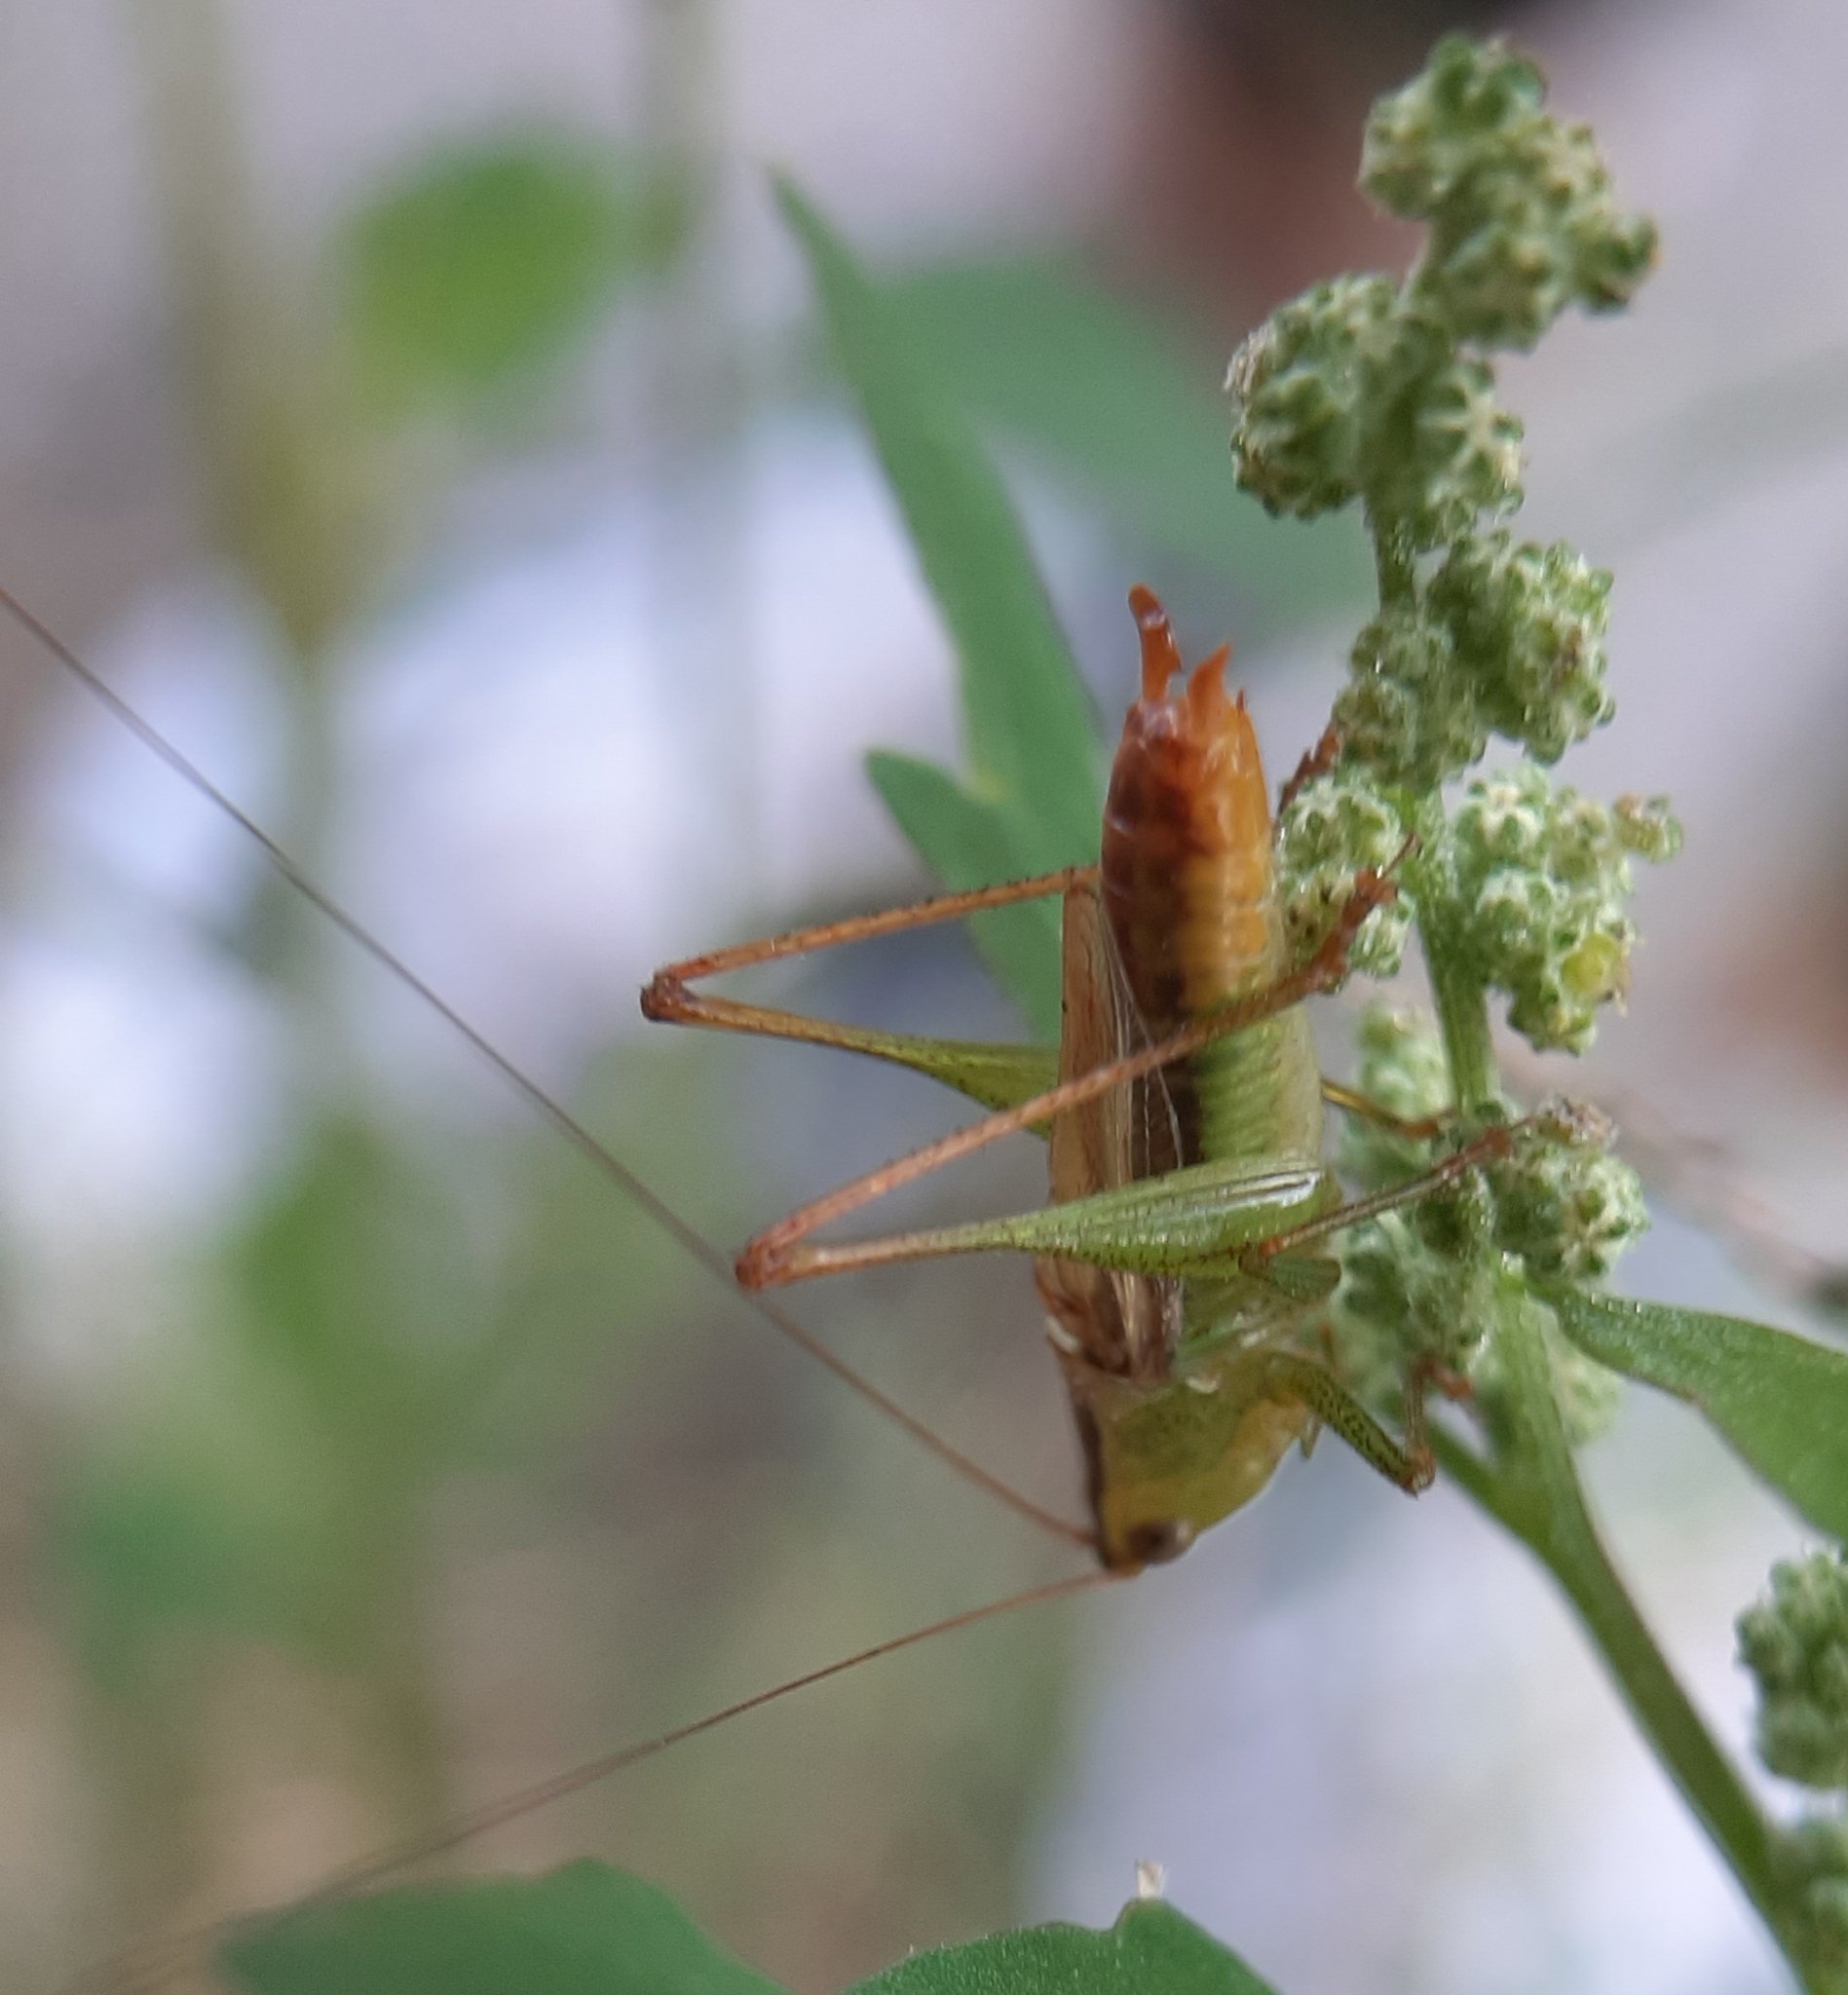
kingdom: Animalia
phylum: Arthropoda
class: Insecta
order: Orthoptera
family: Tettigoniidae
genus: Conocephalus
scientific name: Conocephalus brevipennis
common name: Short-winged meadow katydid
